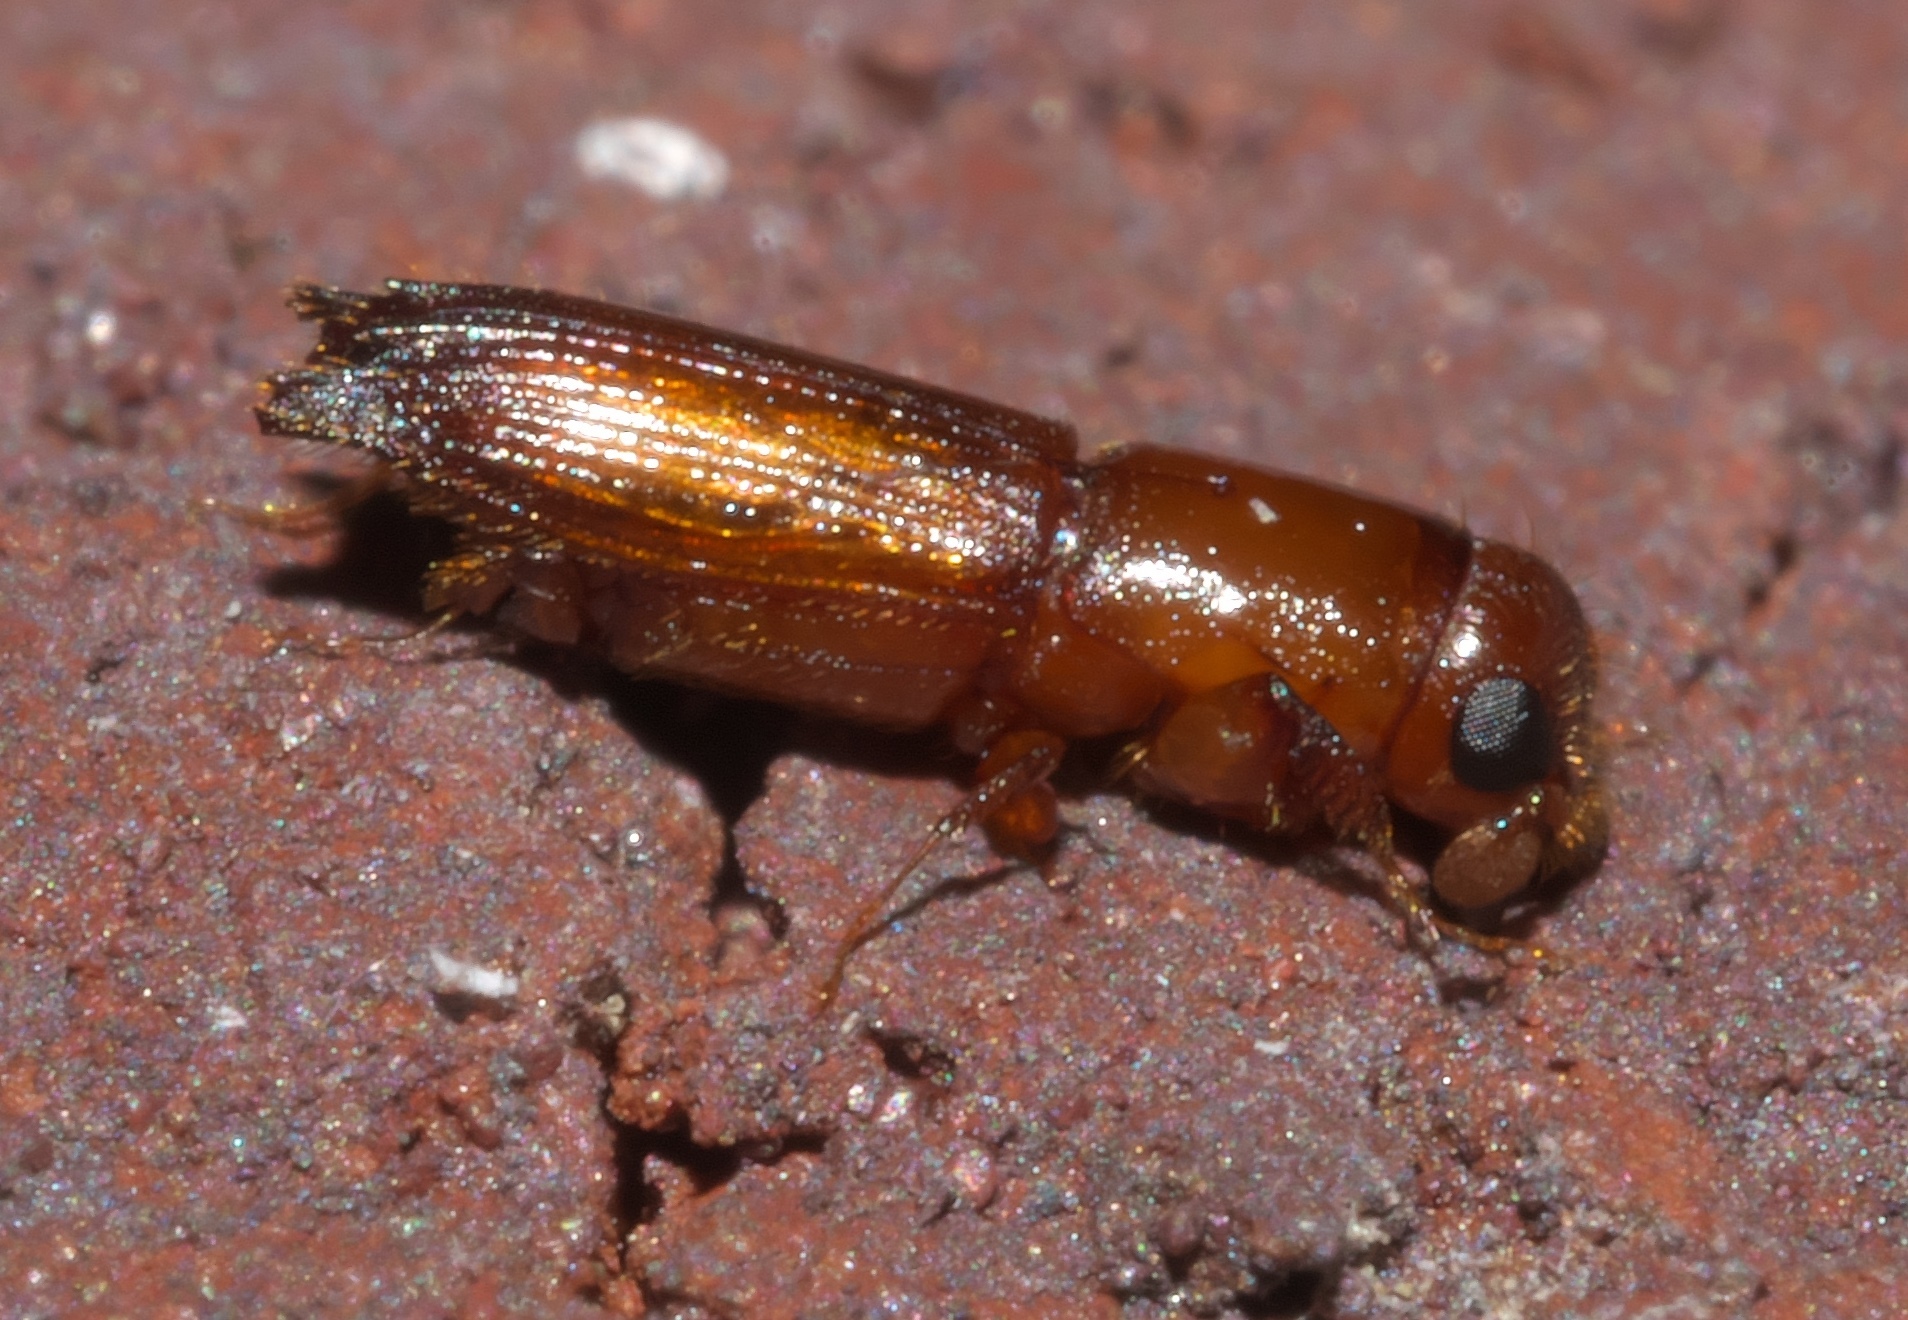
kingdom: Animalia
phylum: Arthropoda
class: Insecta
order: Coleoptera
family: Curculionidae
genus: Euplatypus
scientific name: Euplatypus compositus
